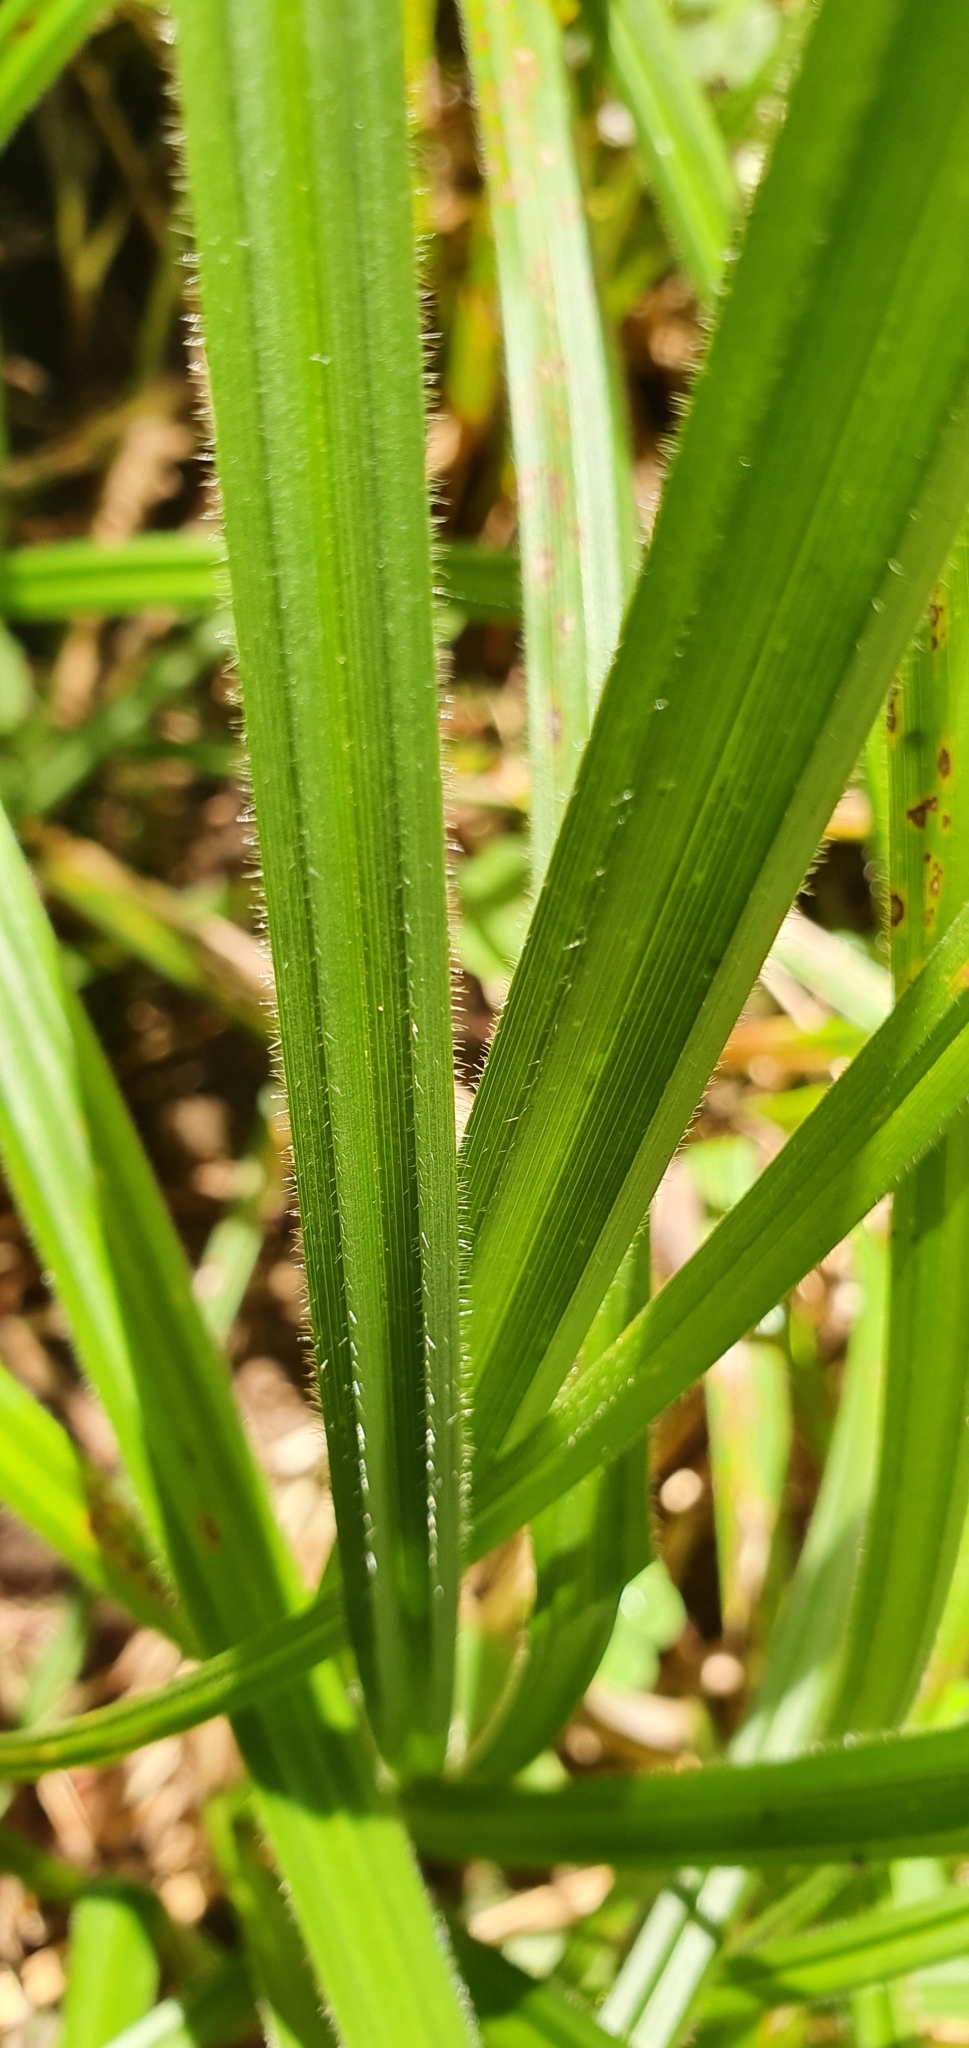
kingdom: Plantae
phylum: Tracheophyta
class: Liliopsida
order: Poales
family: Cyperaceae
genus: Carex
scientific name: Carex pilosa
